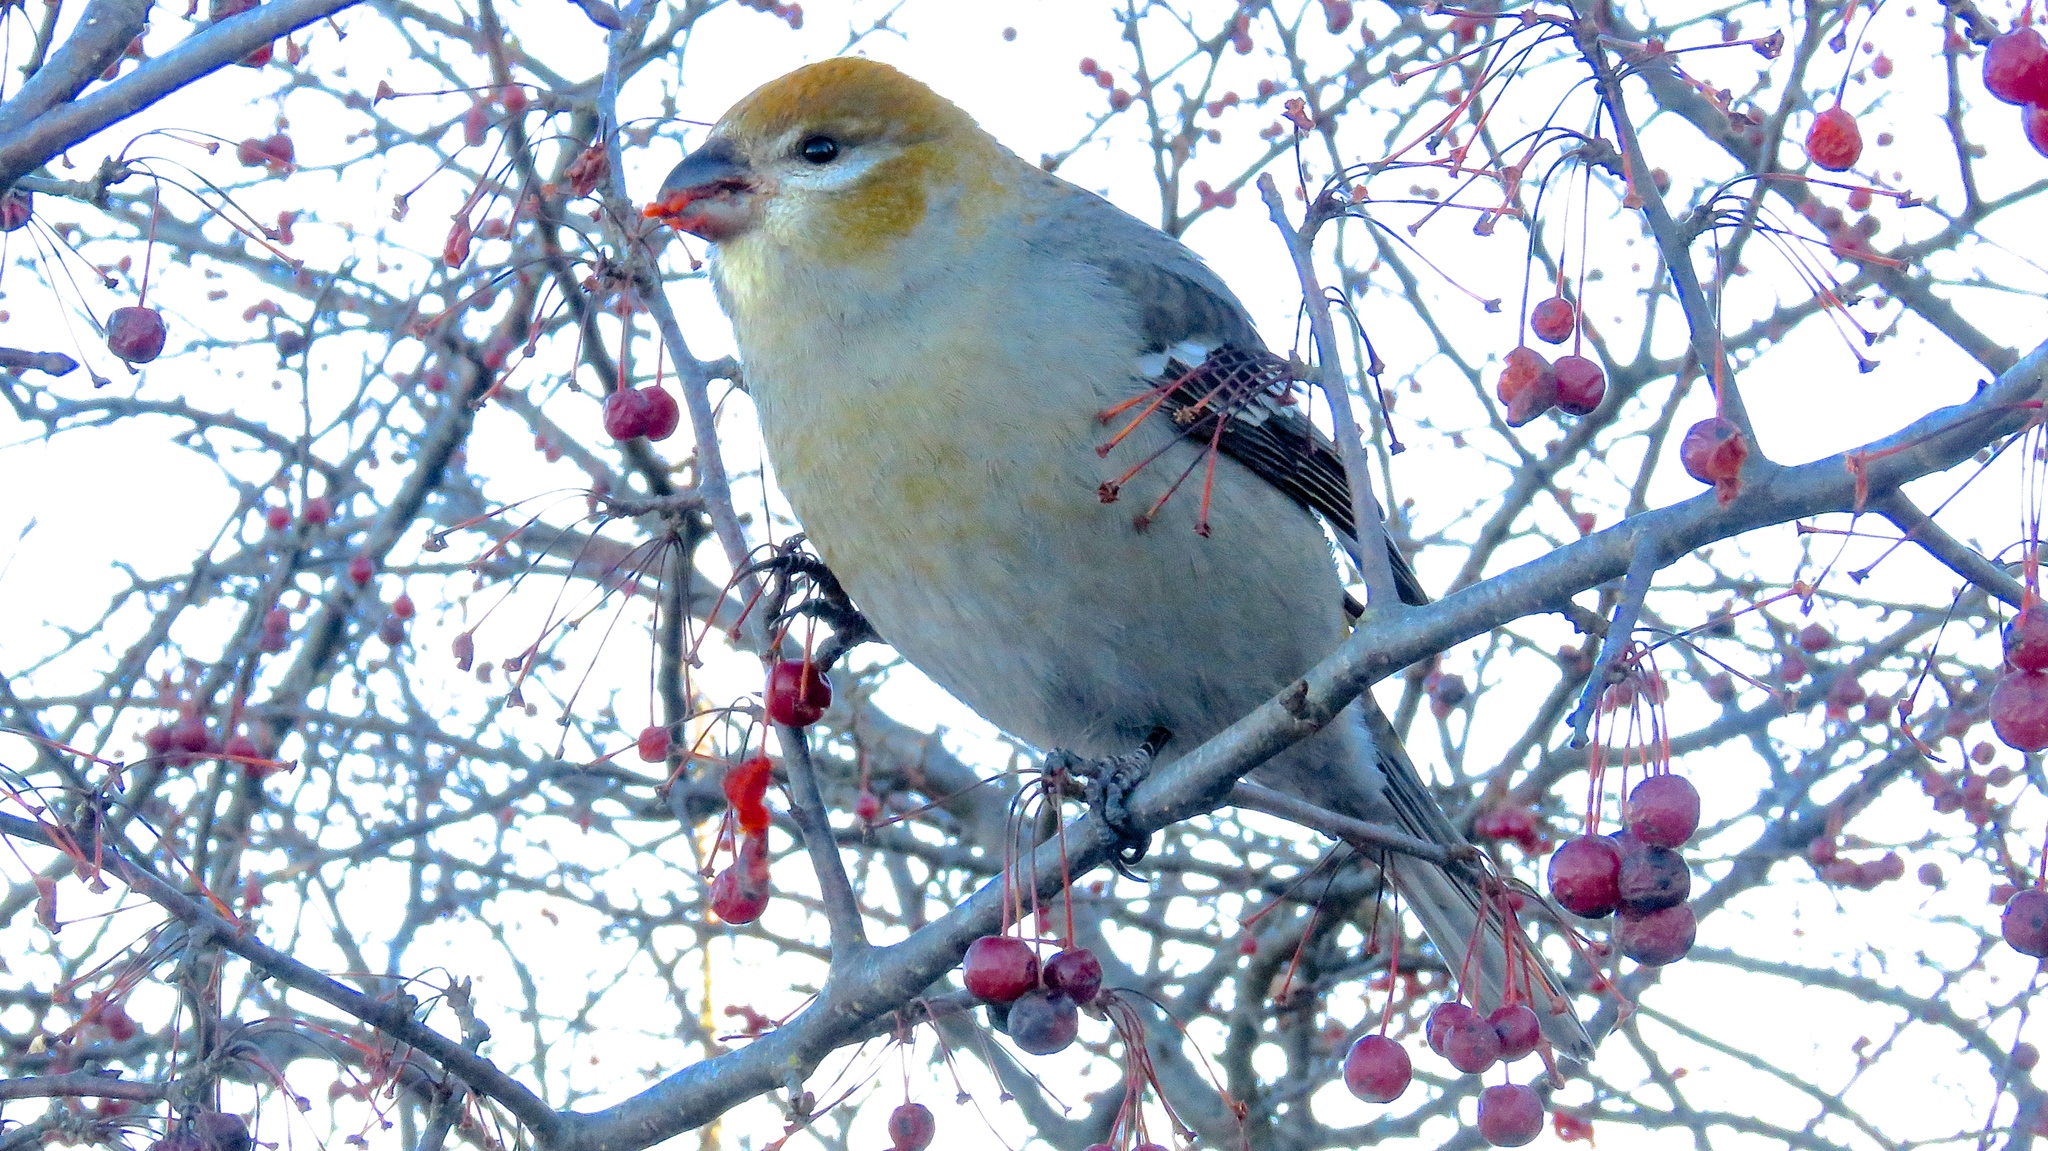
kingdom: Animalia
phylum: Chordata
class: Aves
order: Passeriformes
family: Fringillidae
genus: Pinicola
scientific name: Pinicola enucleator
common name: Pine grosbeak
